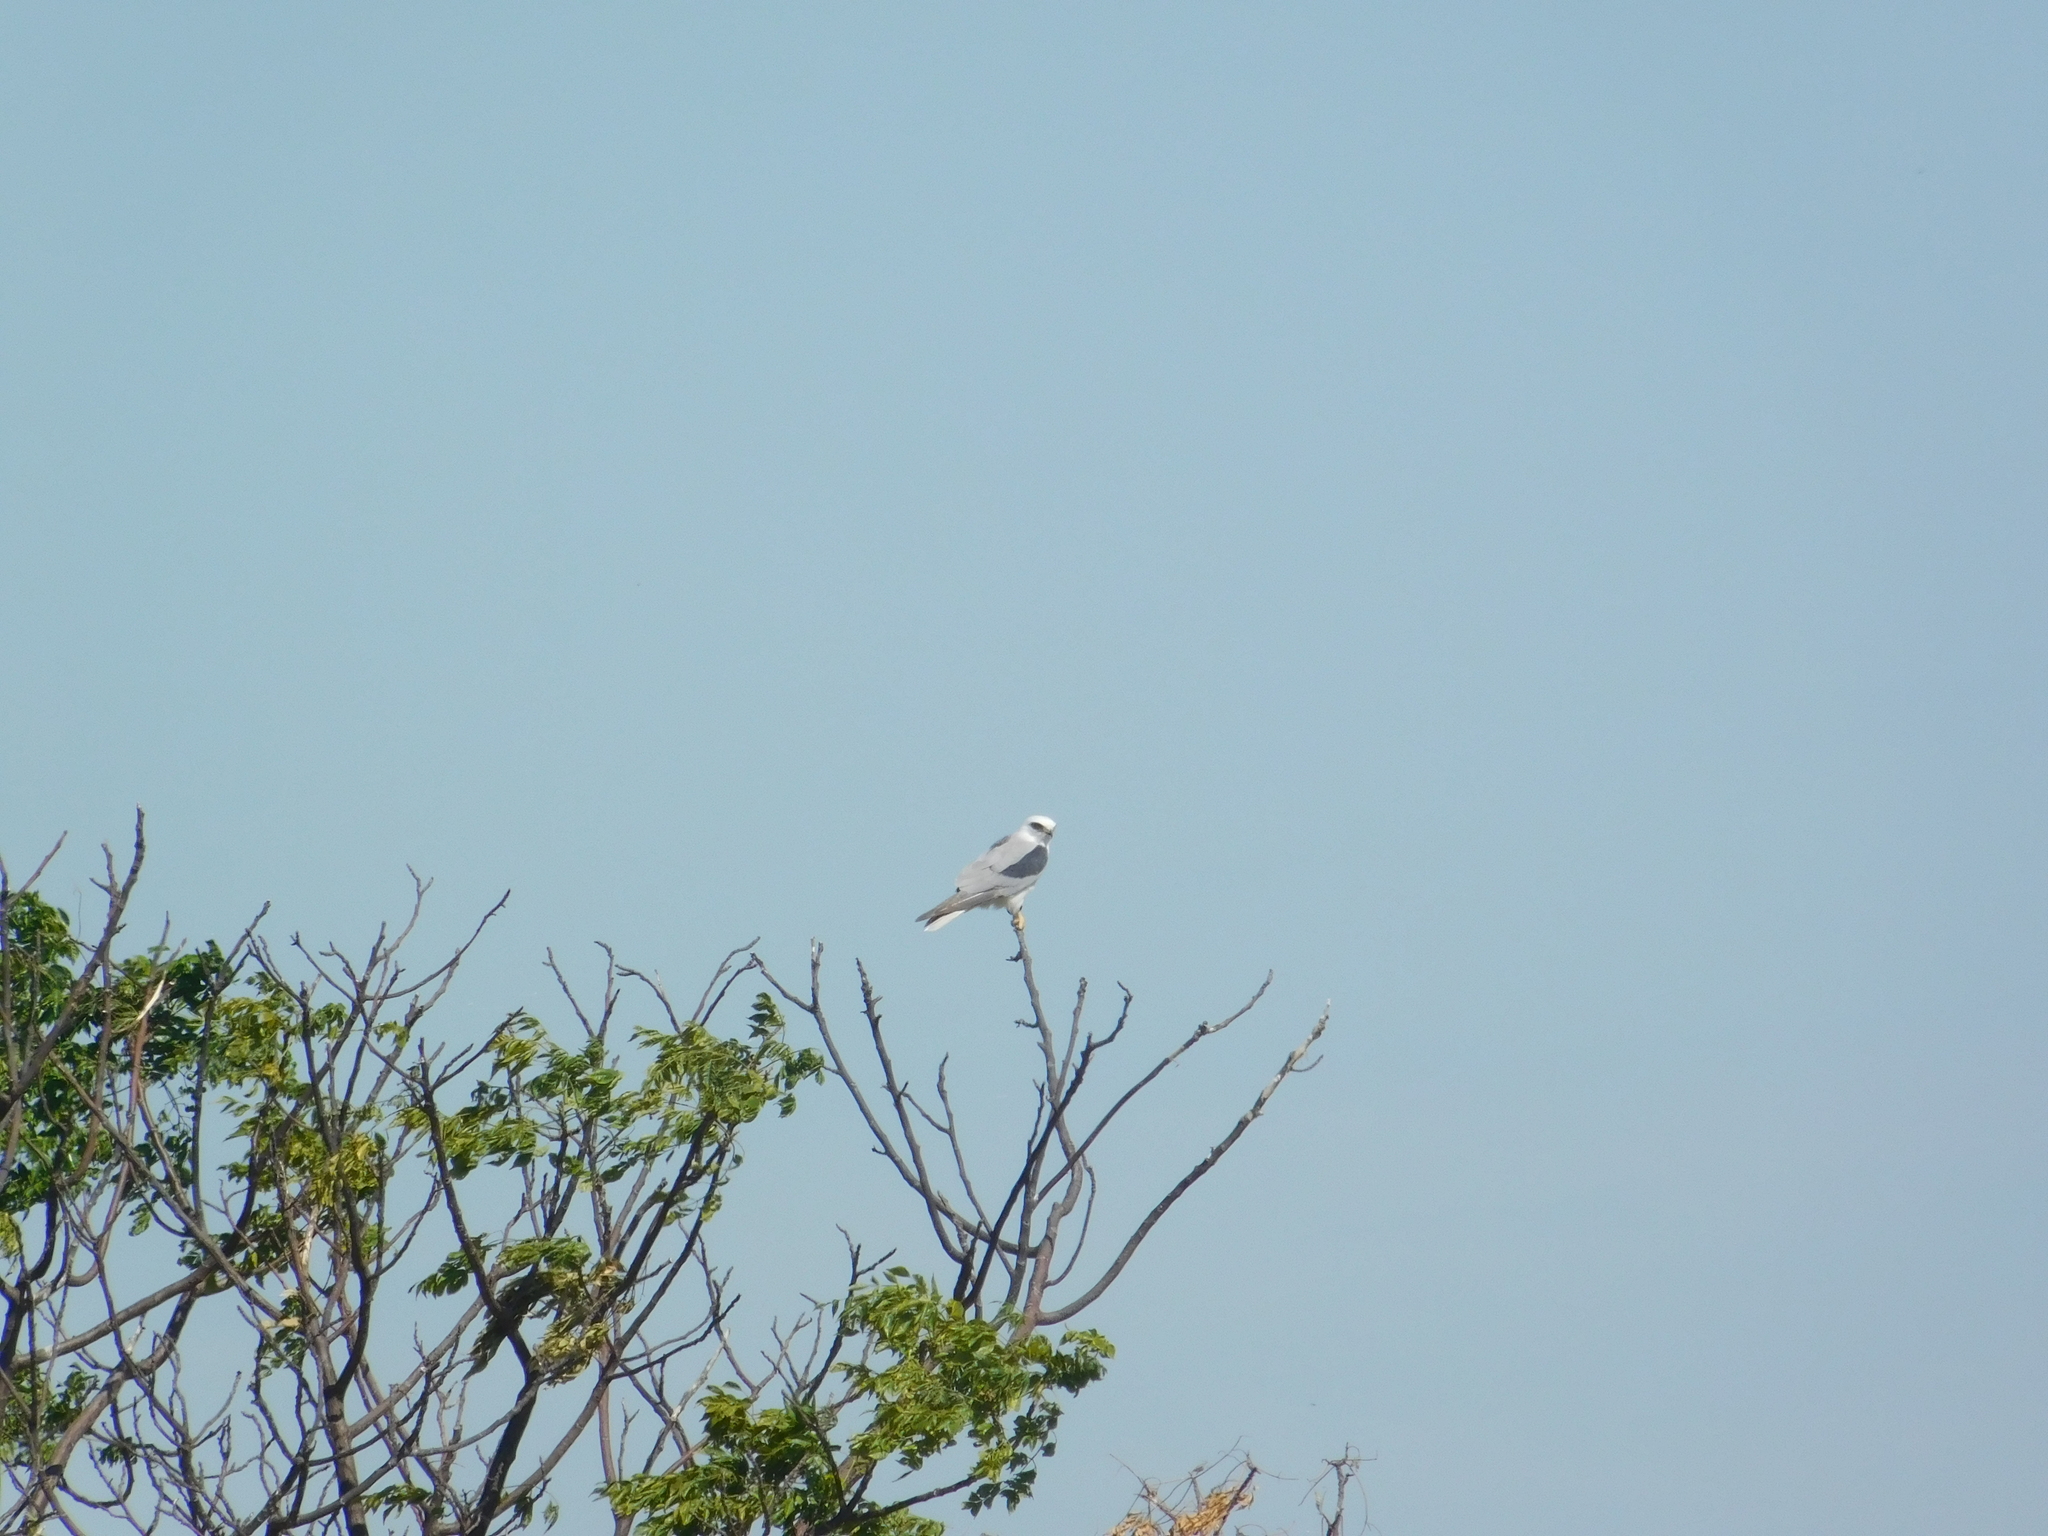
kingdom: Animalia
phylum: Chordata
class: Aves
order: Accipitriformes
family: Accipitridae
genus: Elanus
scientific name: Elanus leucurus
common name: White-tailed kite
